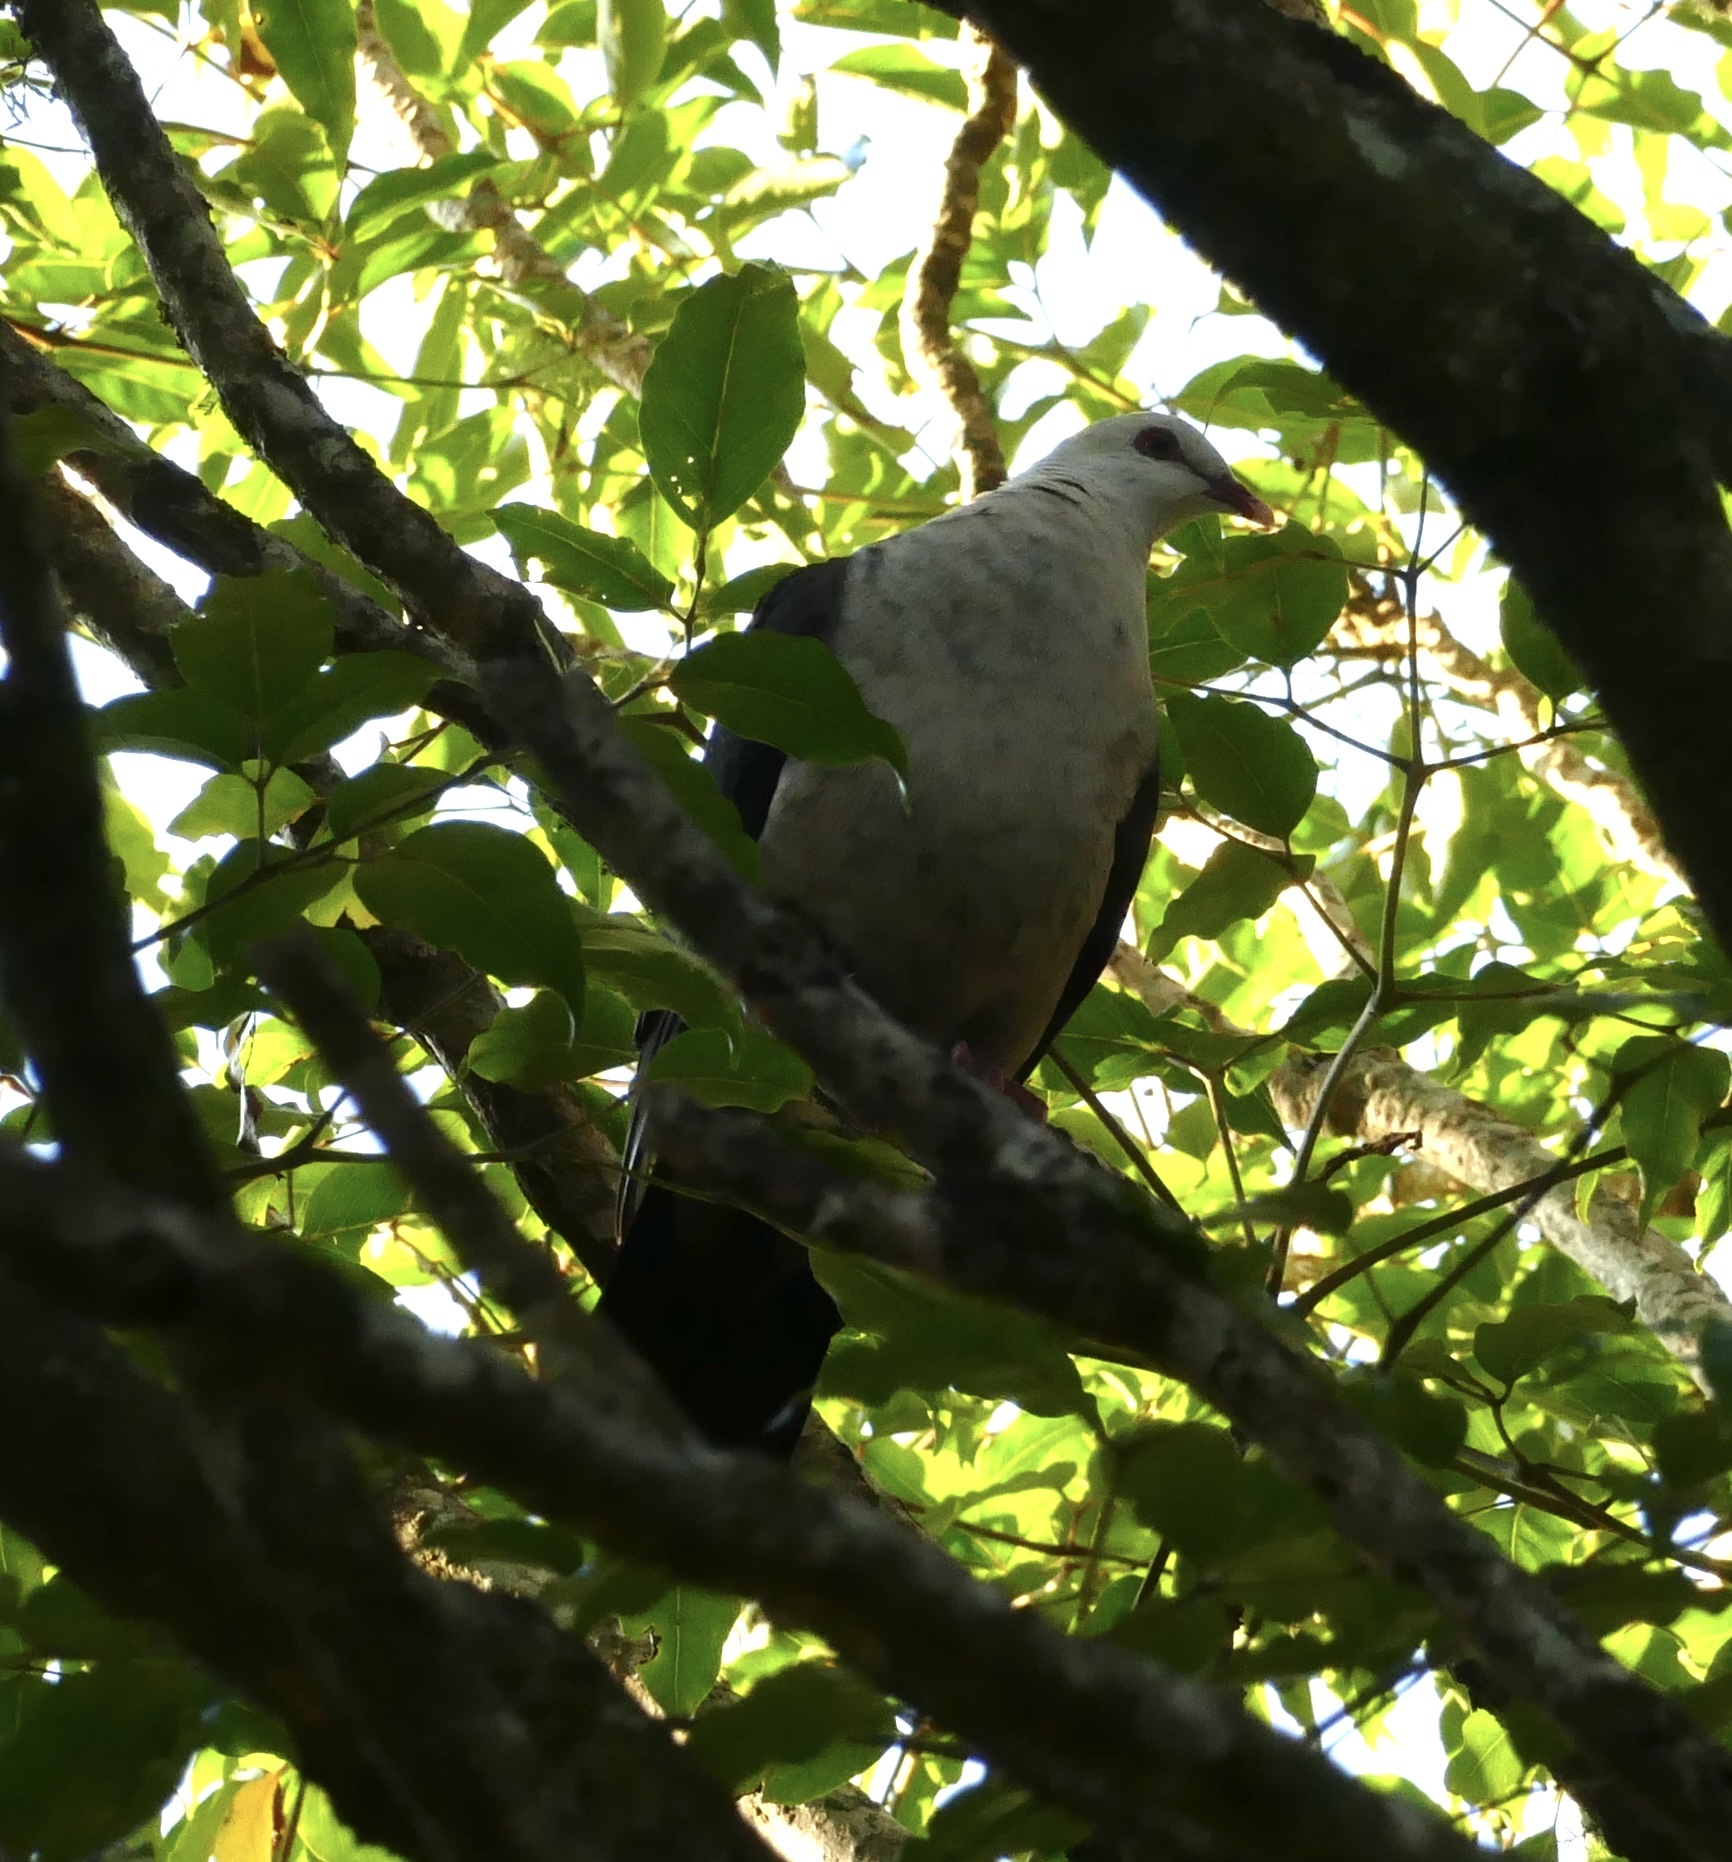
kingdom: Animalia
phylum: Chordata
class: Aves
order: Columbiformes
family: Columbidae
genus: Columba
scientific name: Columba leucomela
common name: White-headed pigeon
